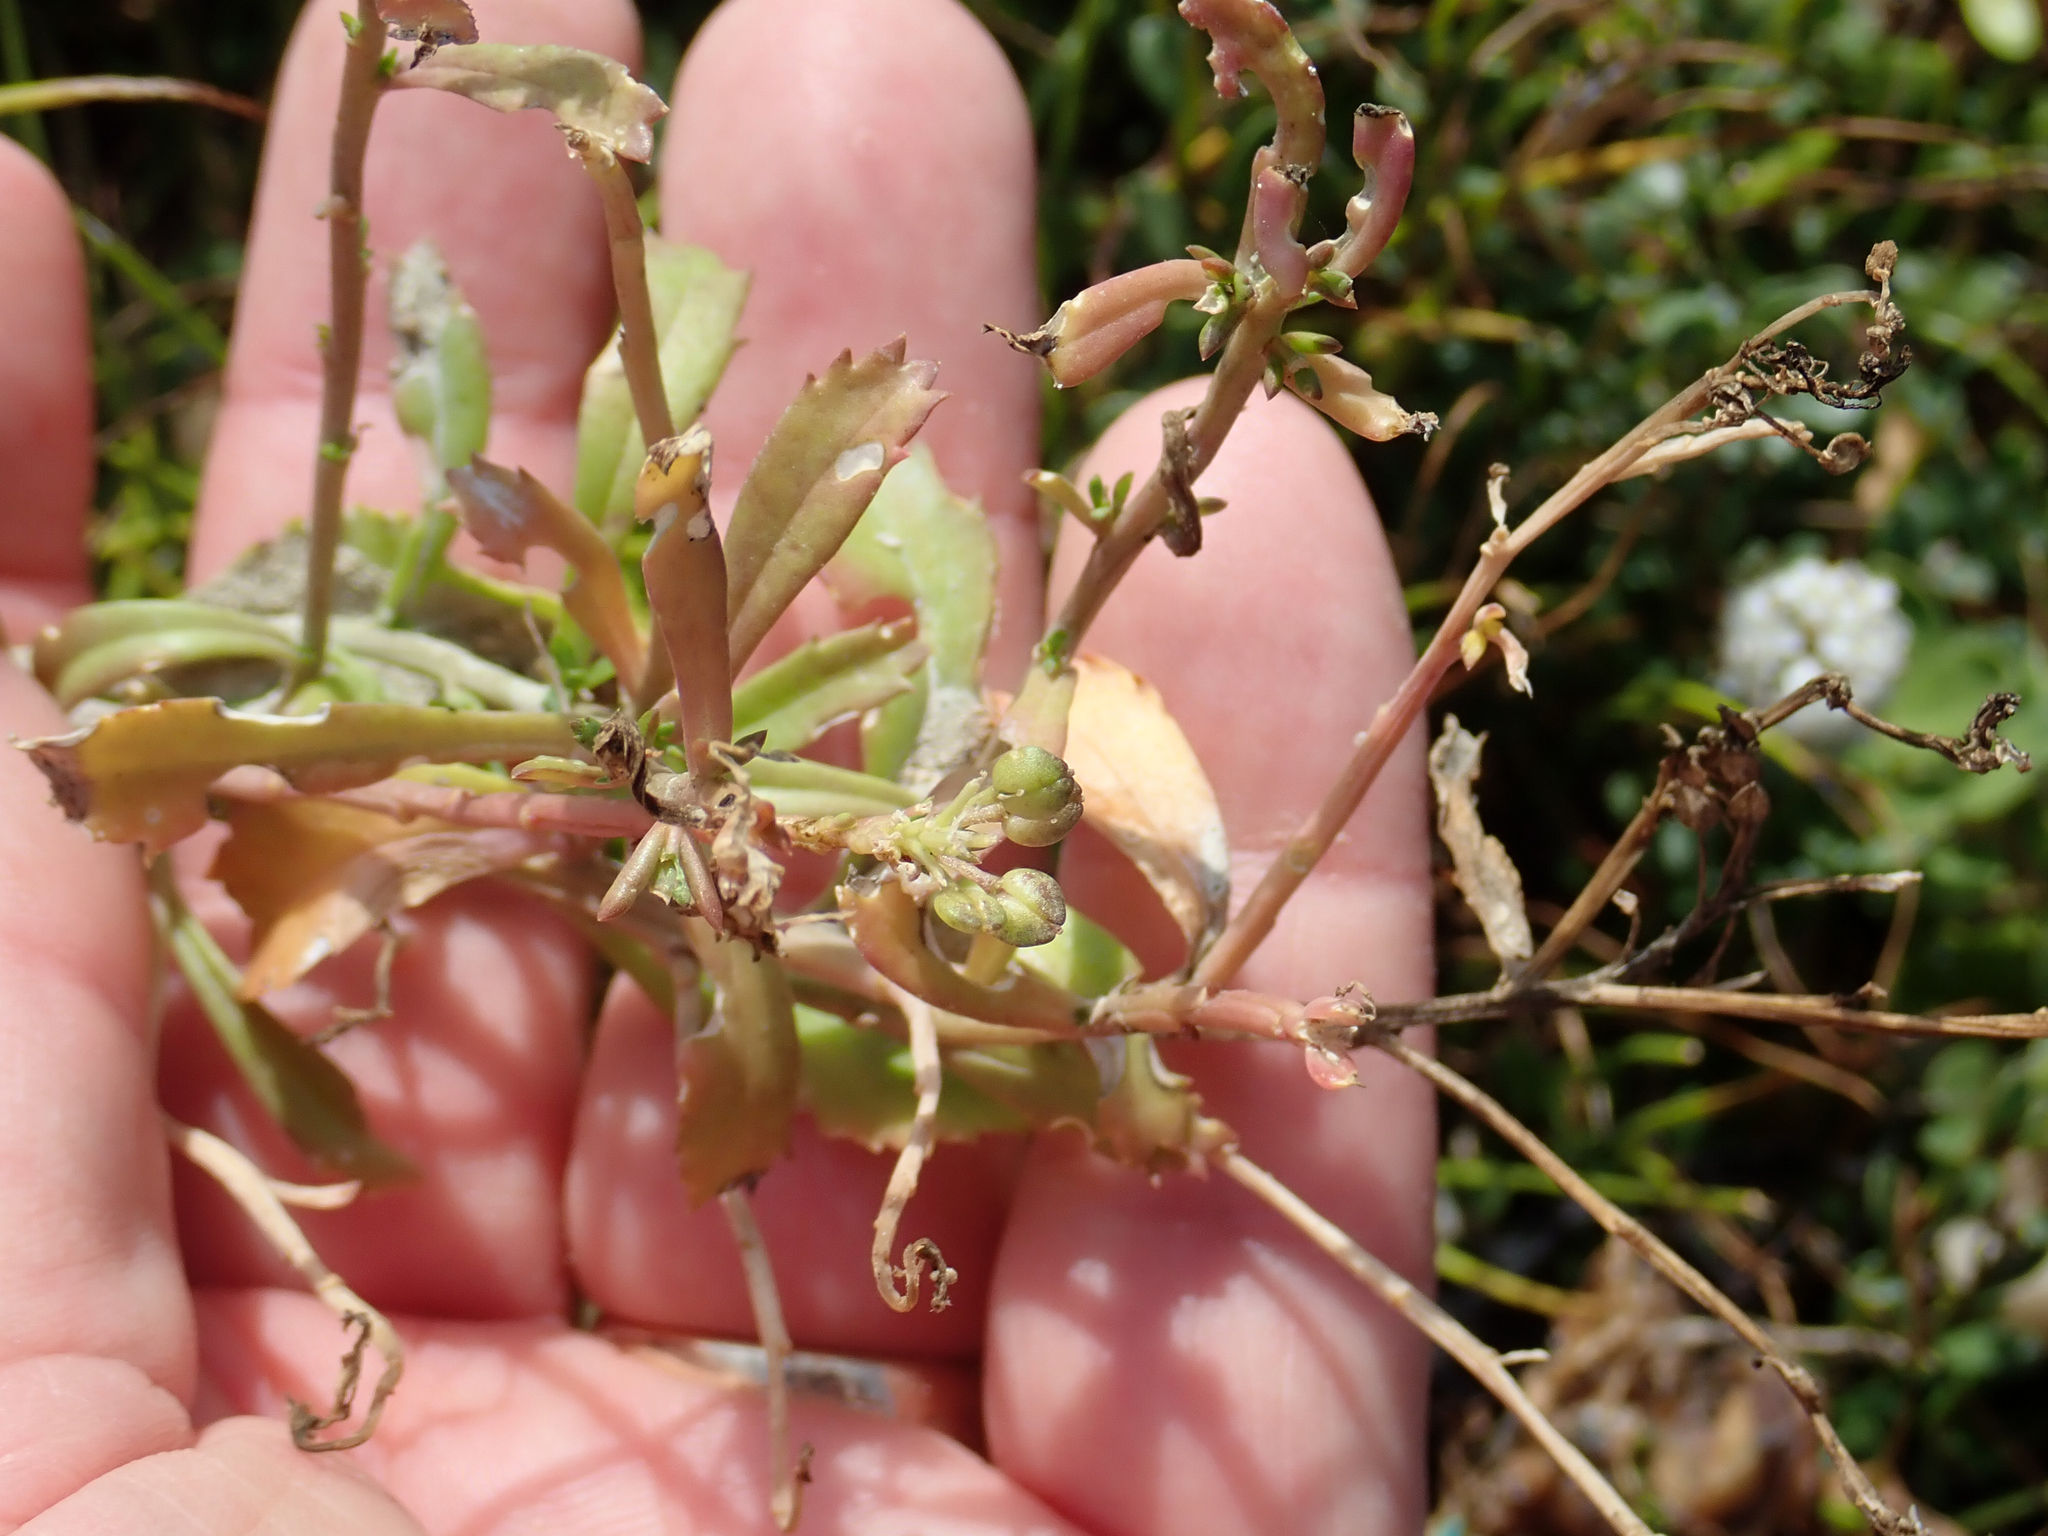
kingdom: Plantae
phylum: Tracheophyta
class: Magnoliopsida
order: Brassicales
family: Brassicaceae
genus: Lepidium
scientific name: Lepidium rekohuense
